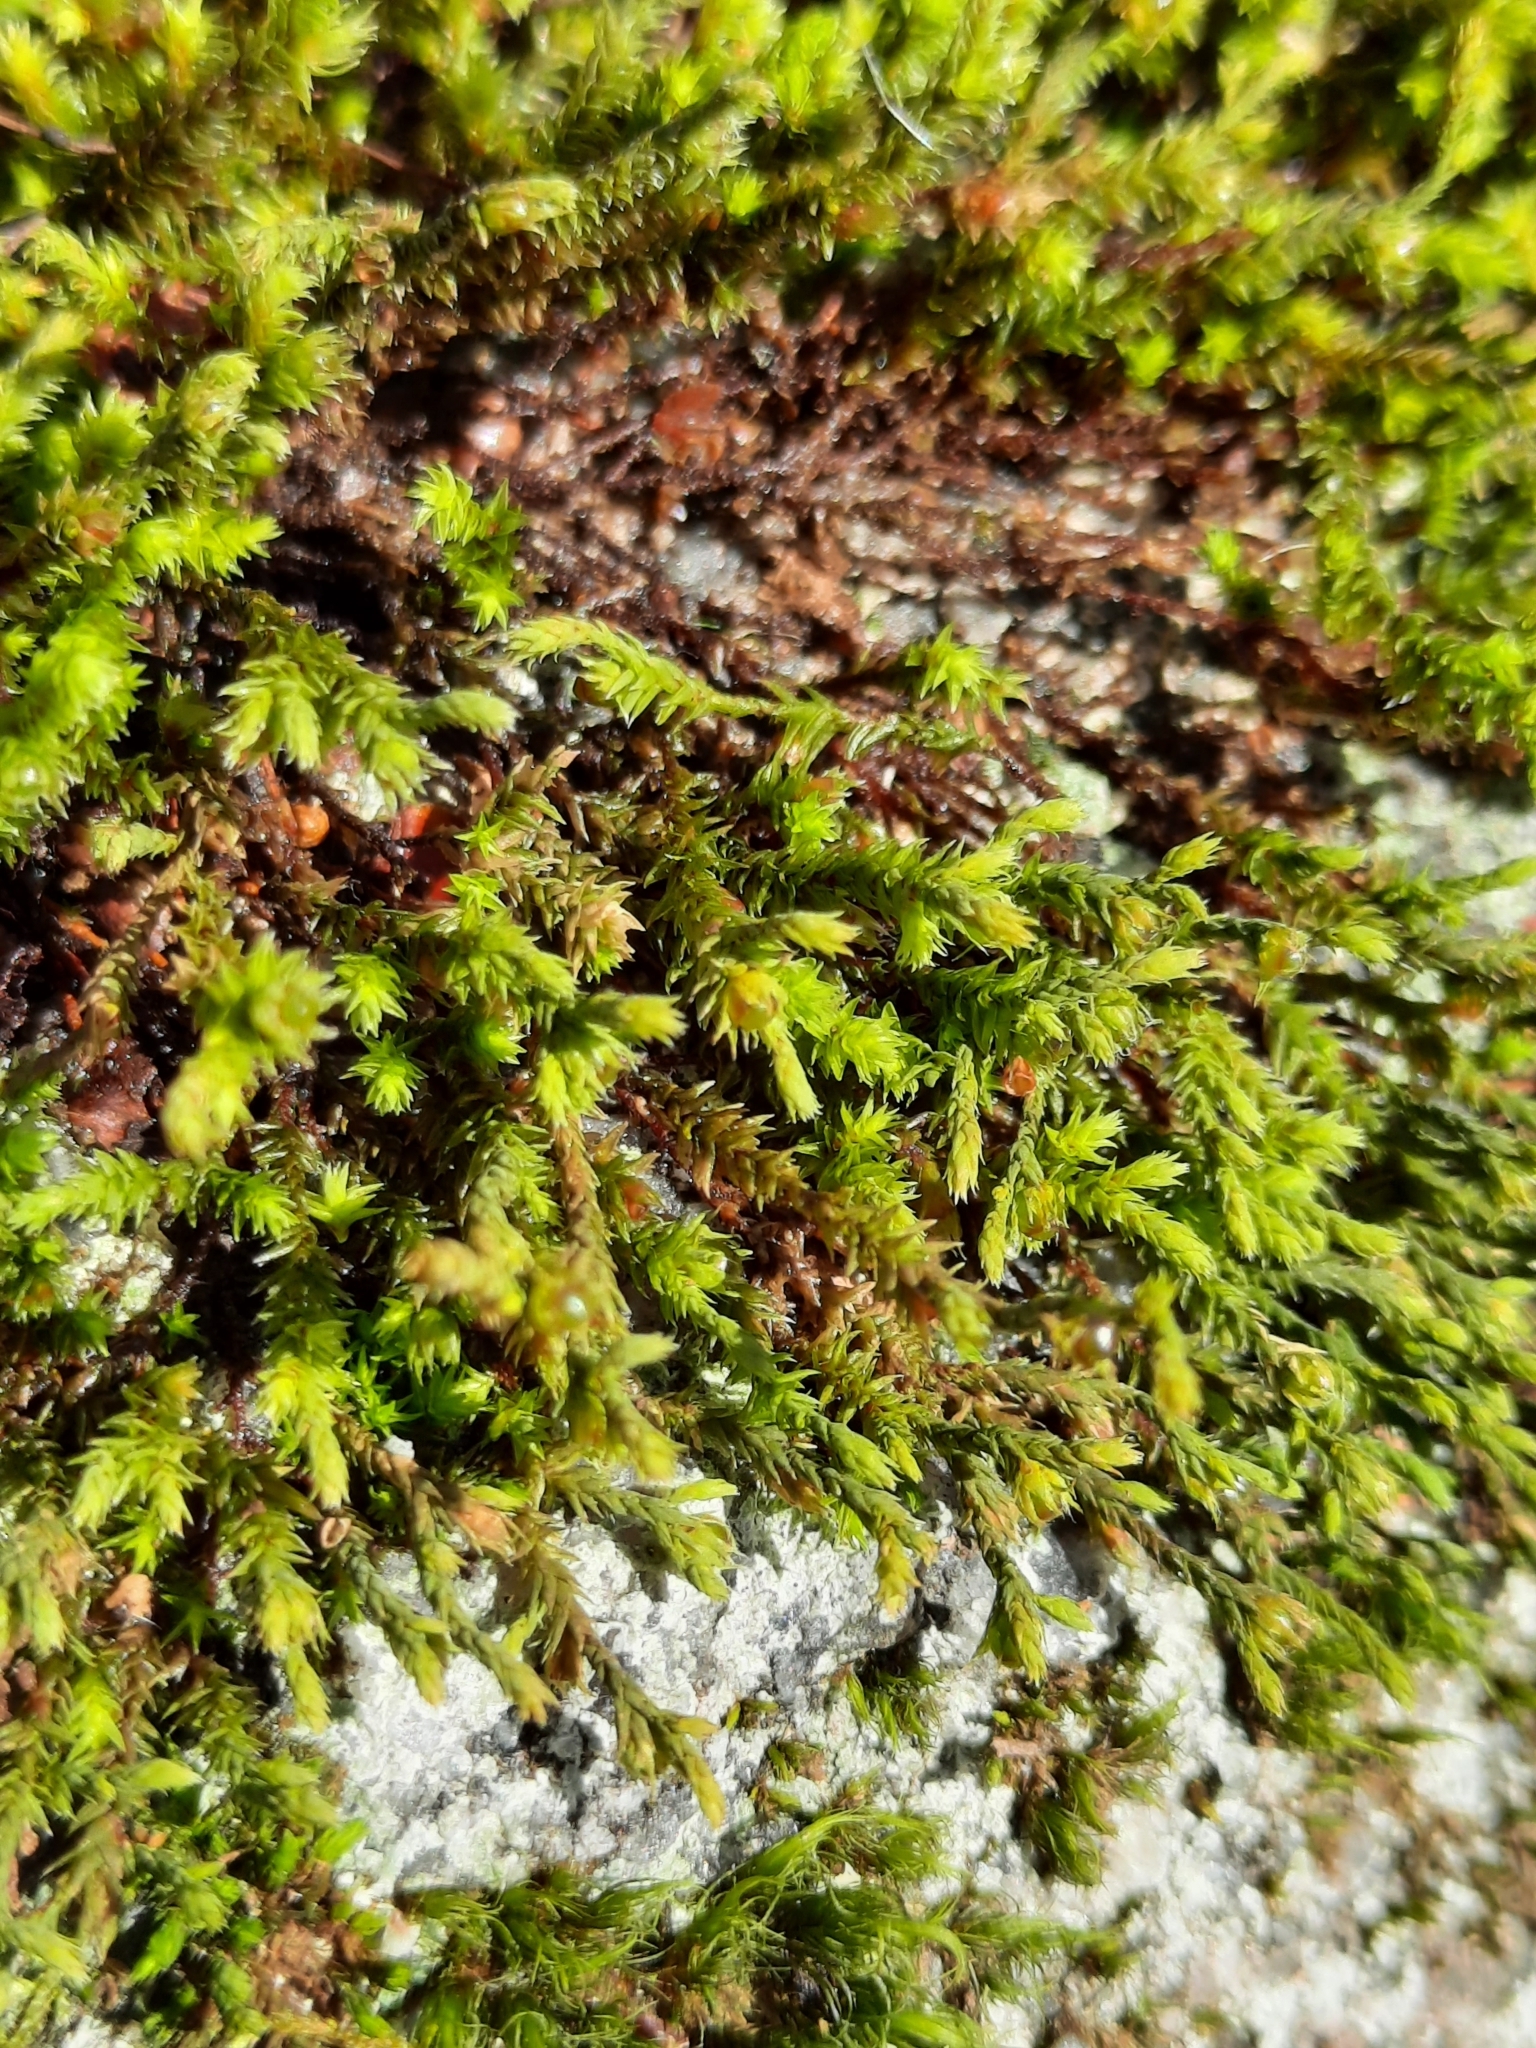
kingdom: Plantae
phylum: Bryophyta
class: Bryopsida
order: Hedwigiales
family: Hedwigiaceae
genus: Hedwigia
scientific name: Hedwigia ciliata
